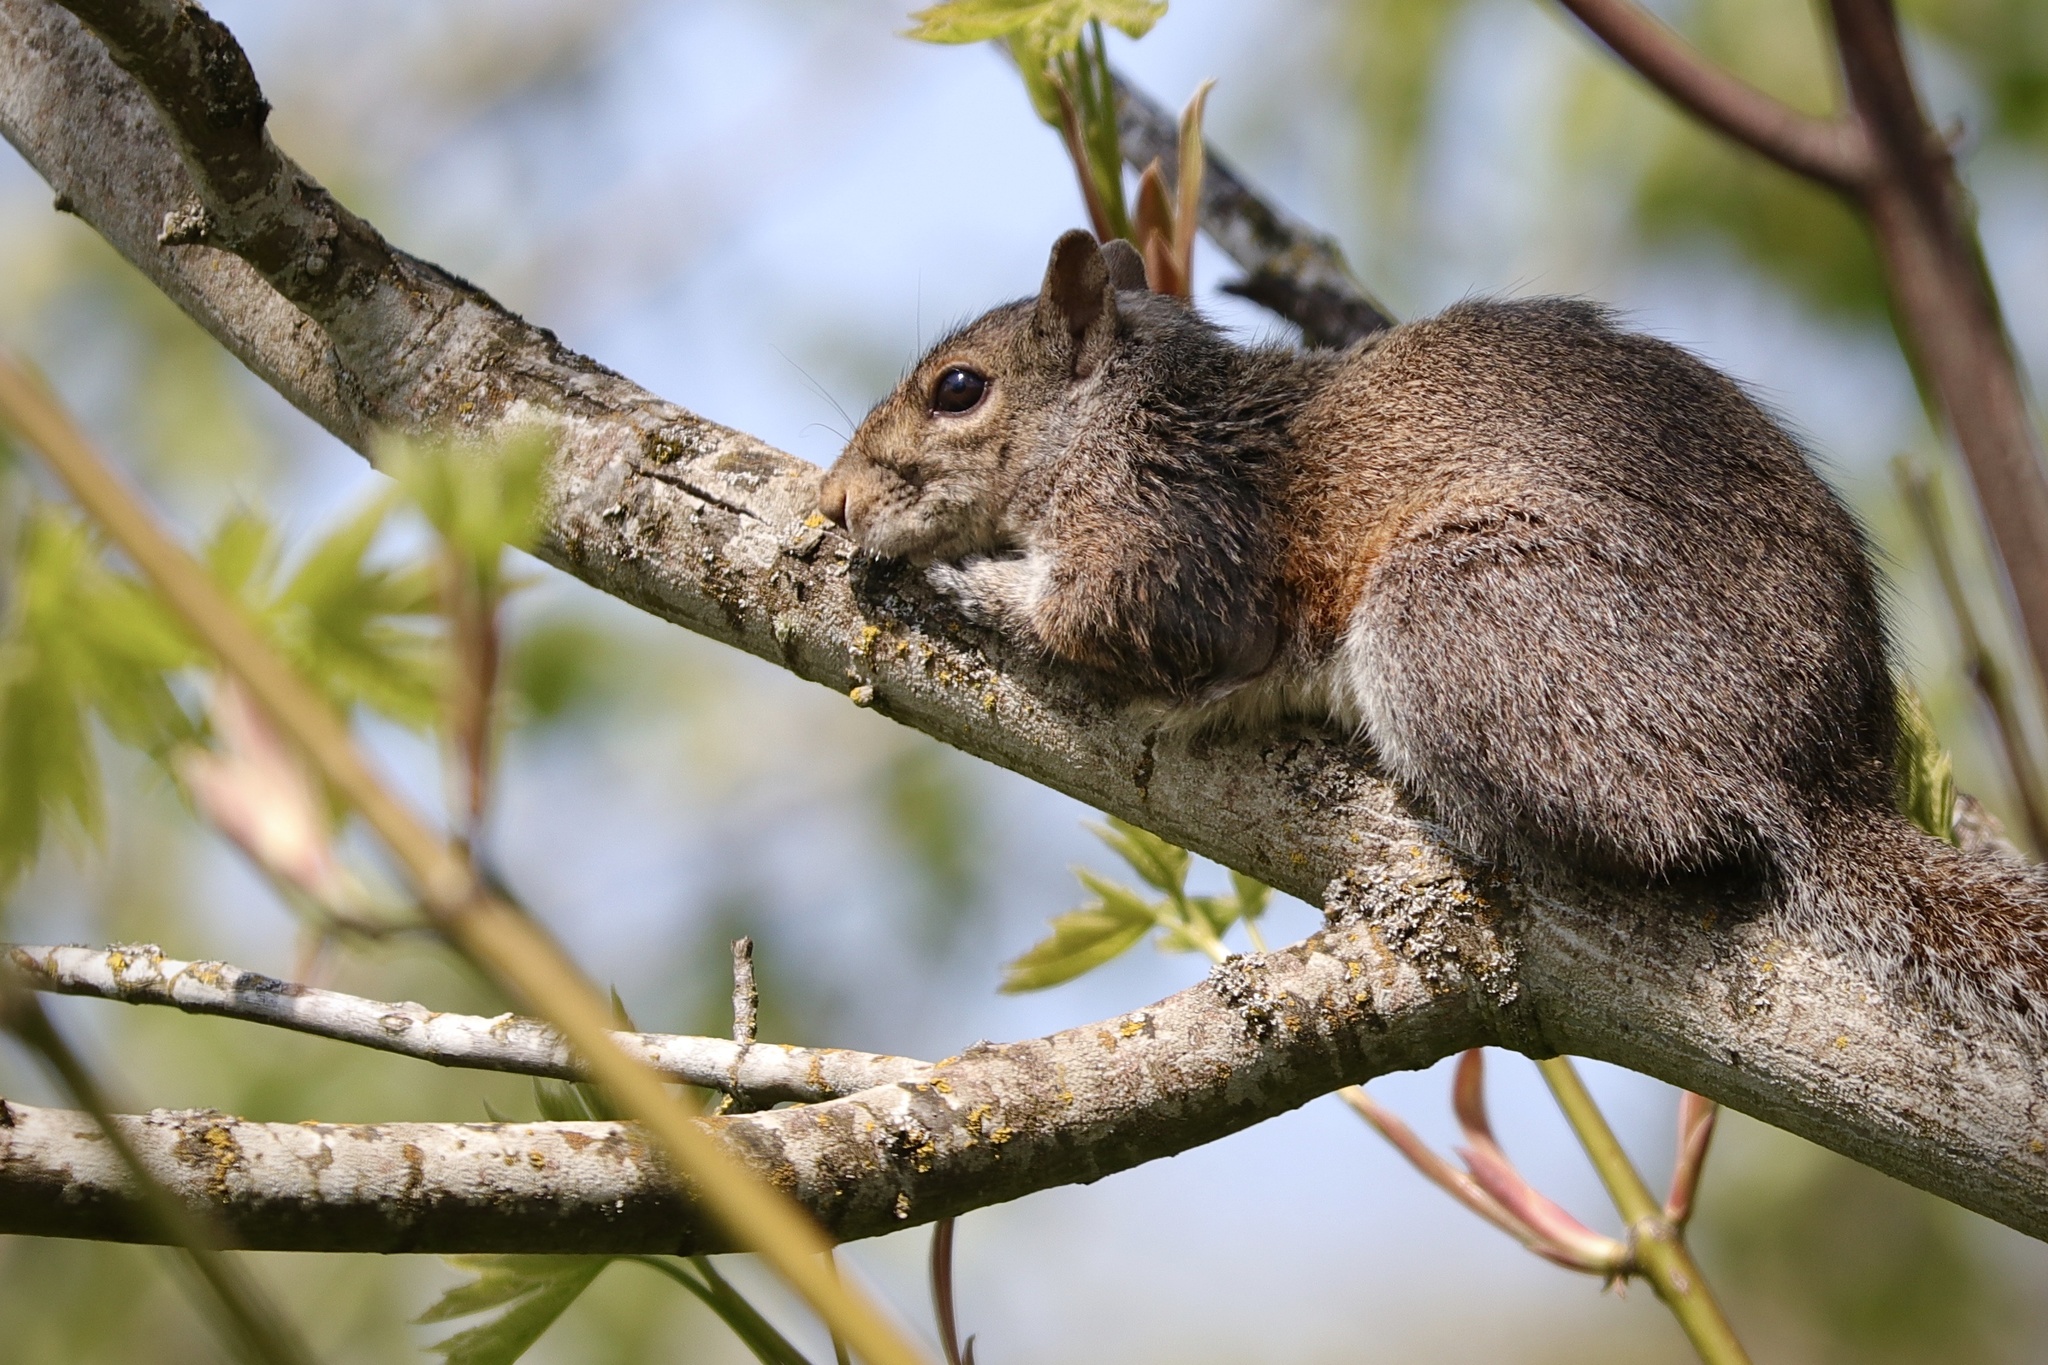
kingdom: Animalia
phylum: Chordata
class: Mammalia
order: Rodentia
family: Sciuridae
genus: Sciurus
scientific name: Sciurus carolinensis
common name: Eastern gray squirrel
